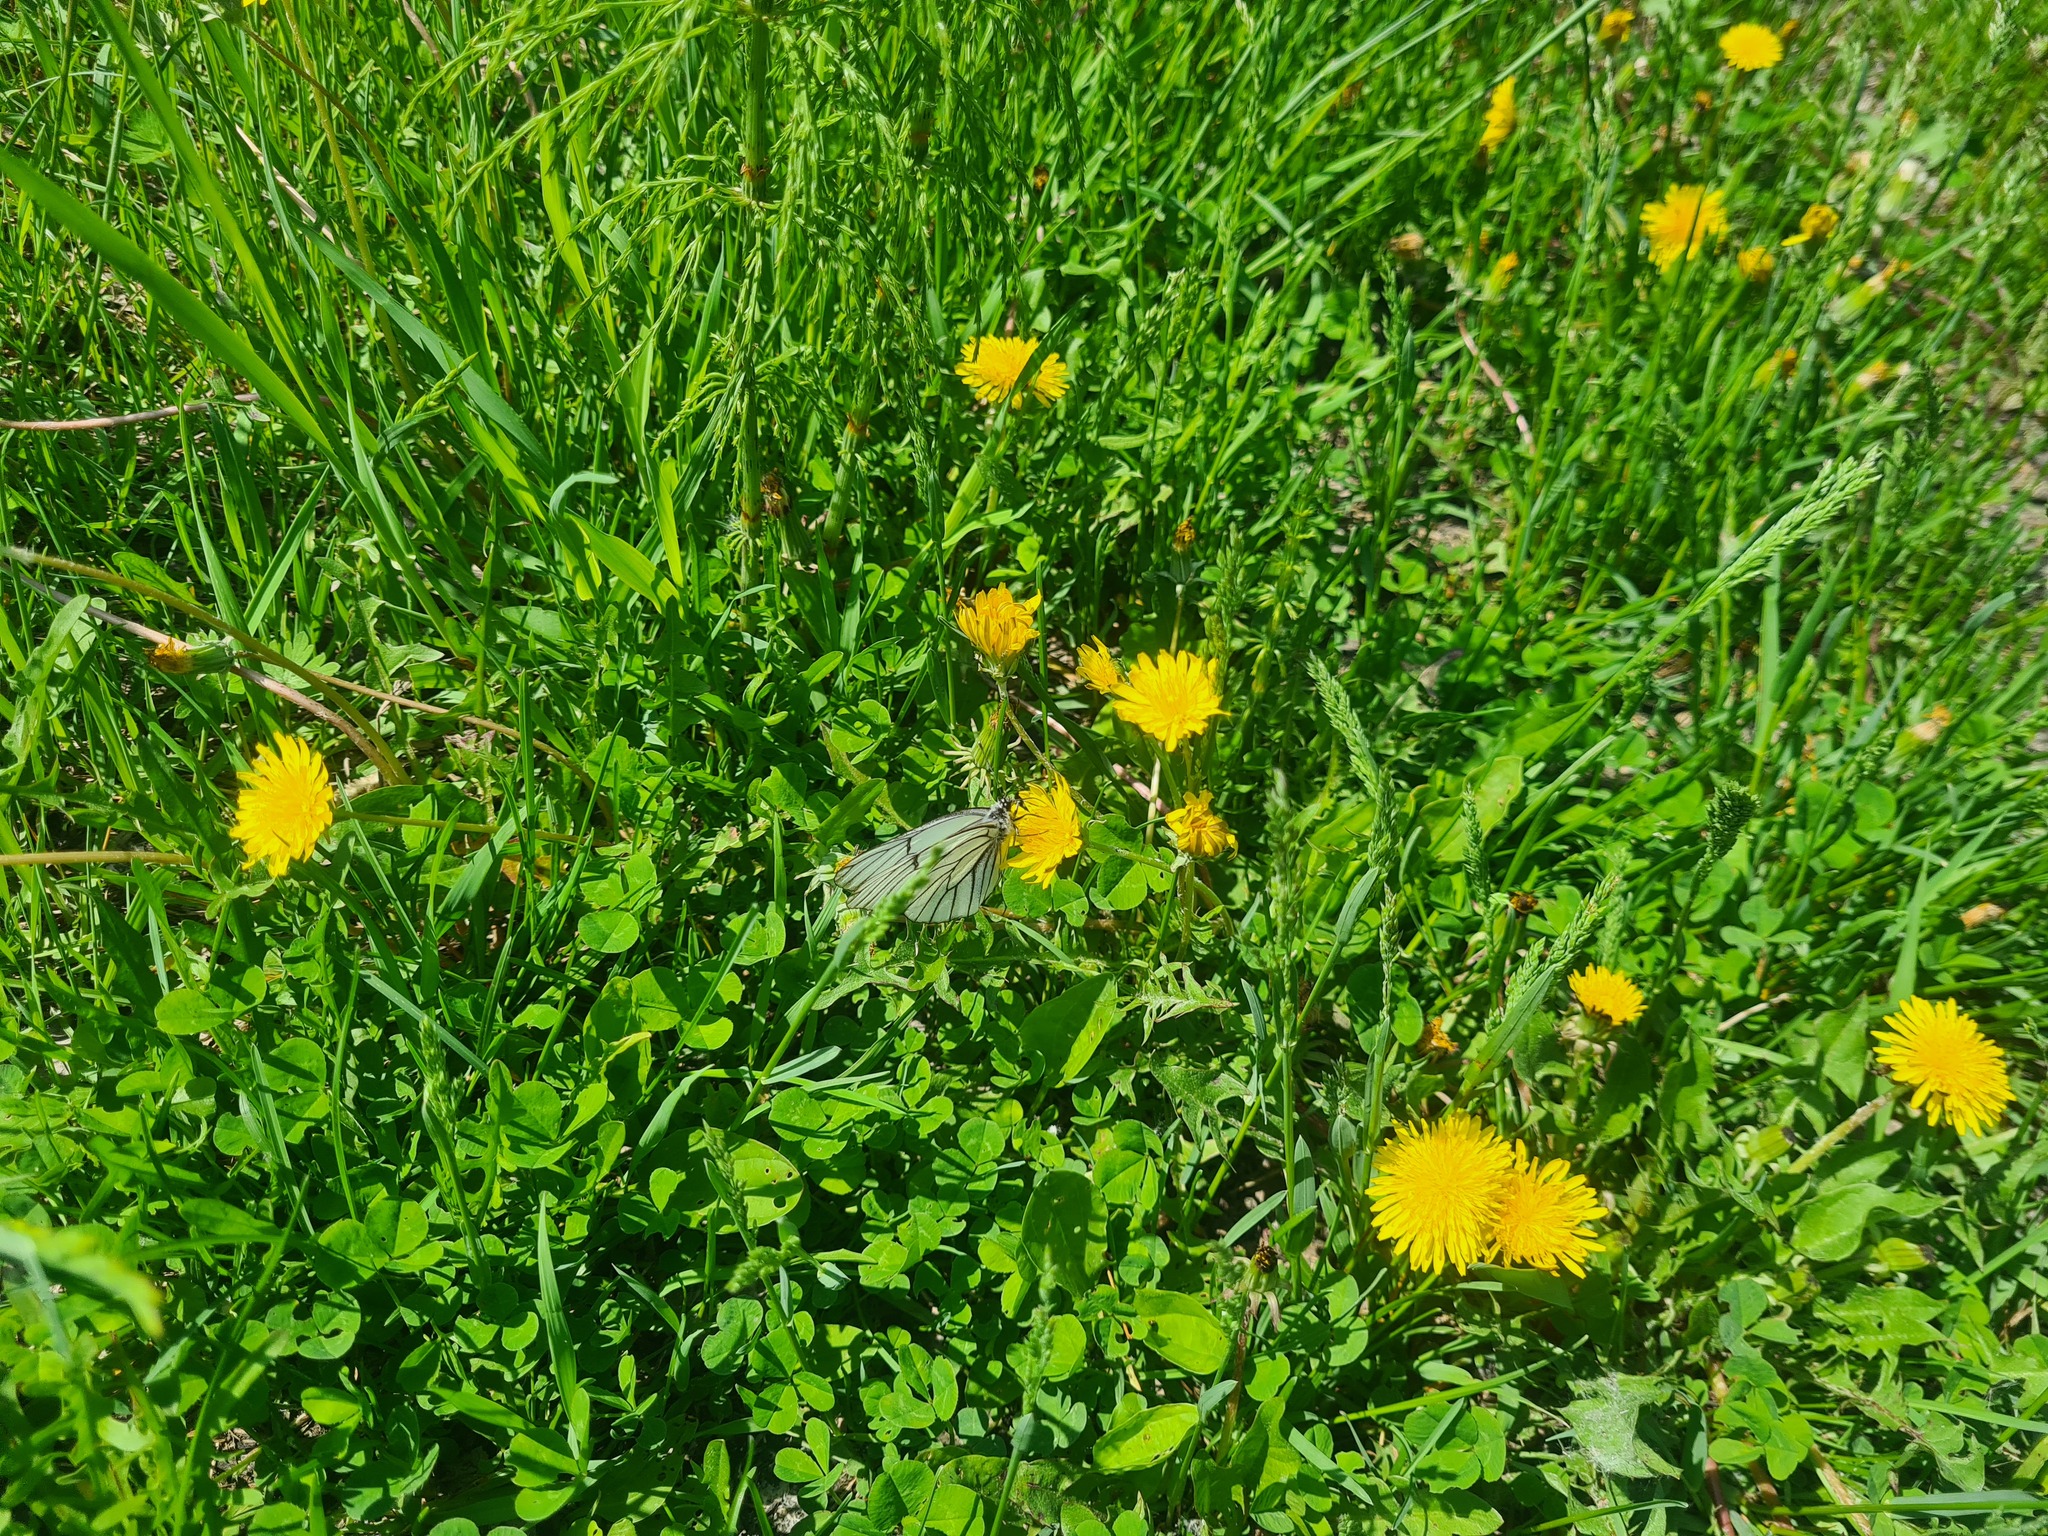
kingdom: Animalia
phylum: Arthropoda
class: Insecta
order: Lepidoptera
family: Pieridae
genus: Aporia
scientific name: Aporia crataegi
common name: Black-veined white
